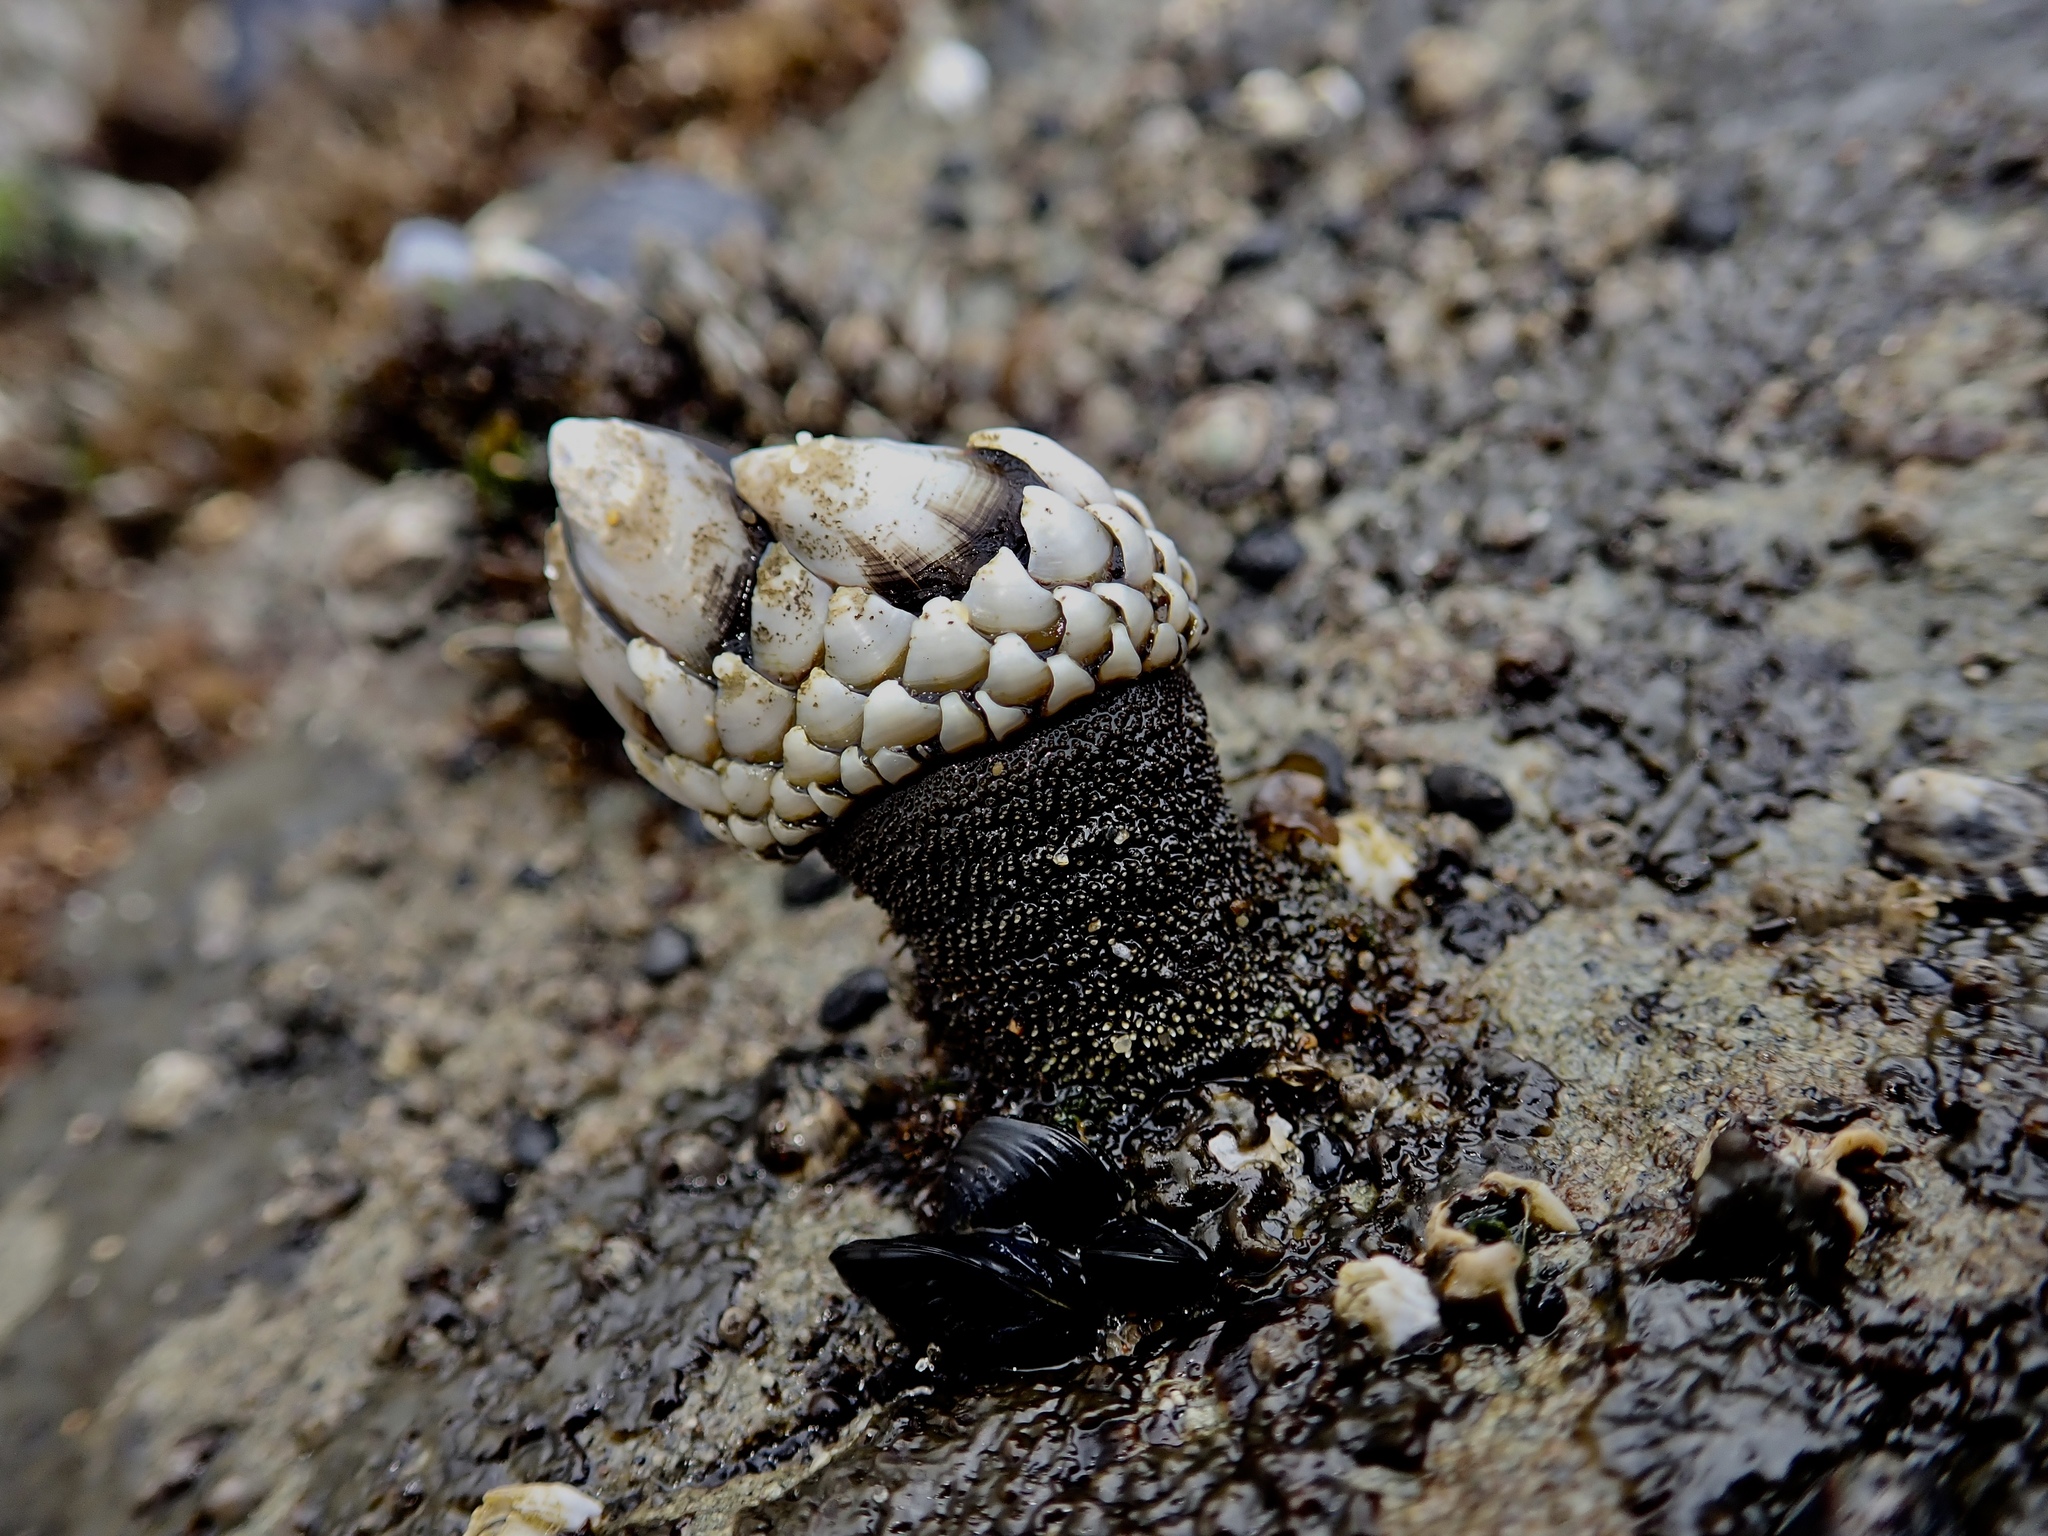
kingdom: Animalia
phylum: Arthropoda
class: Maxillopoda
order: Pedunculata
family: Pollicipedidae
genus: Pollicipes
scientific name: Pollicipes polymerus
